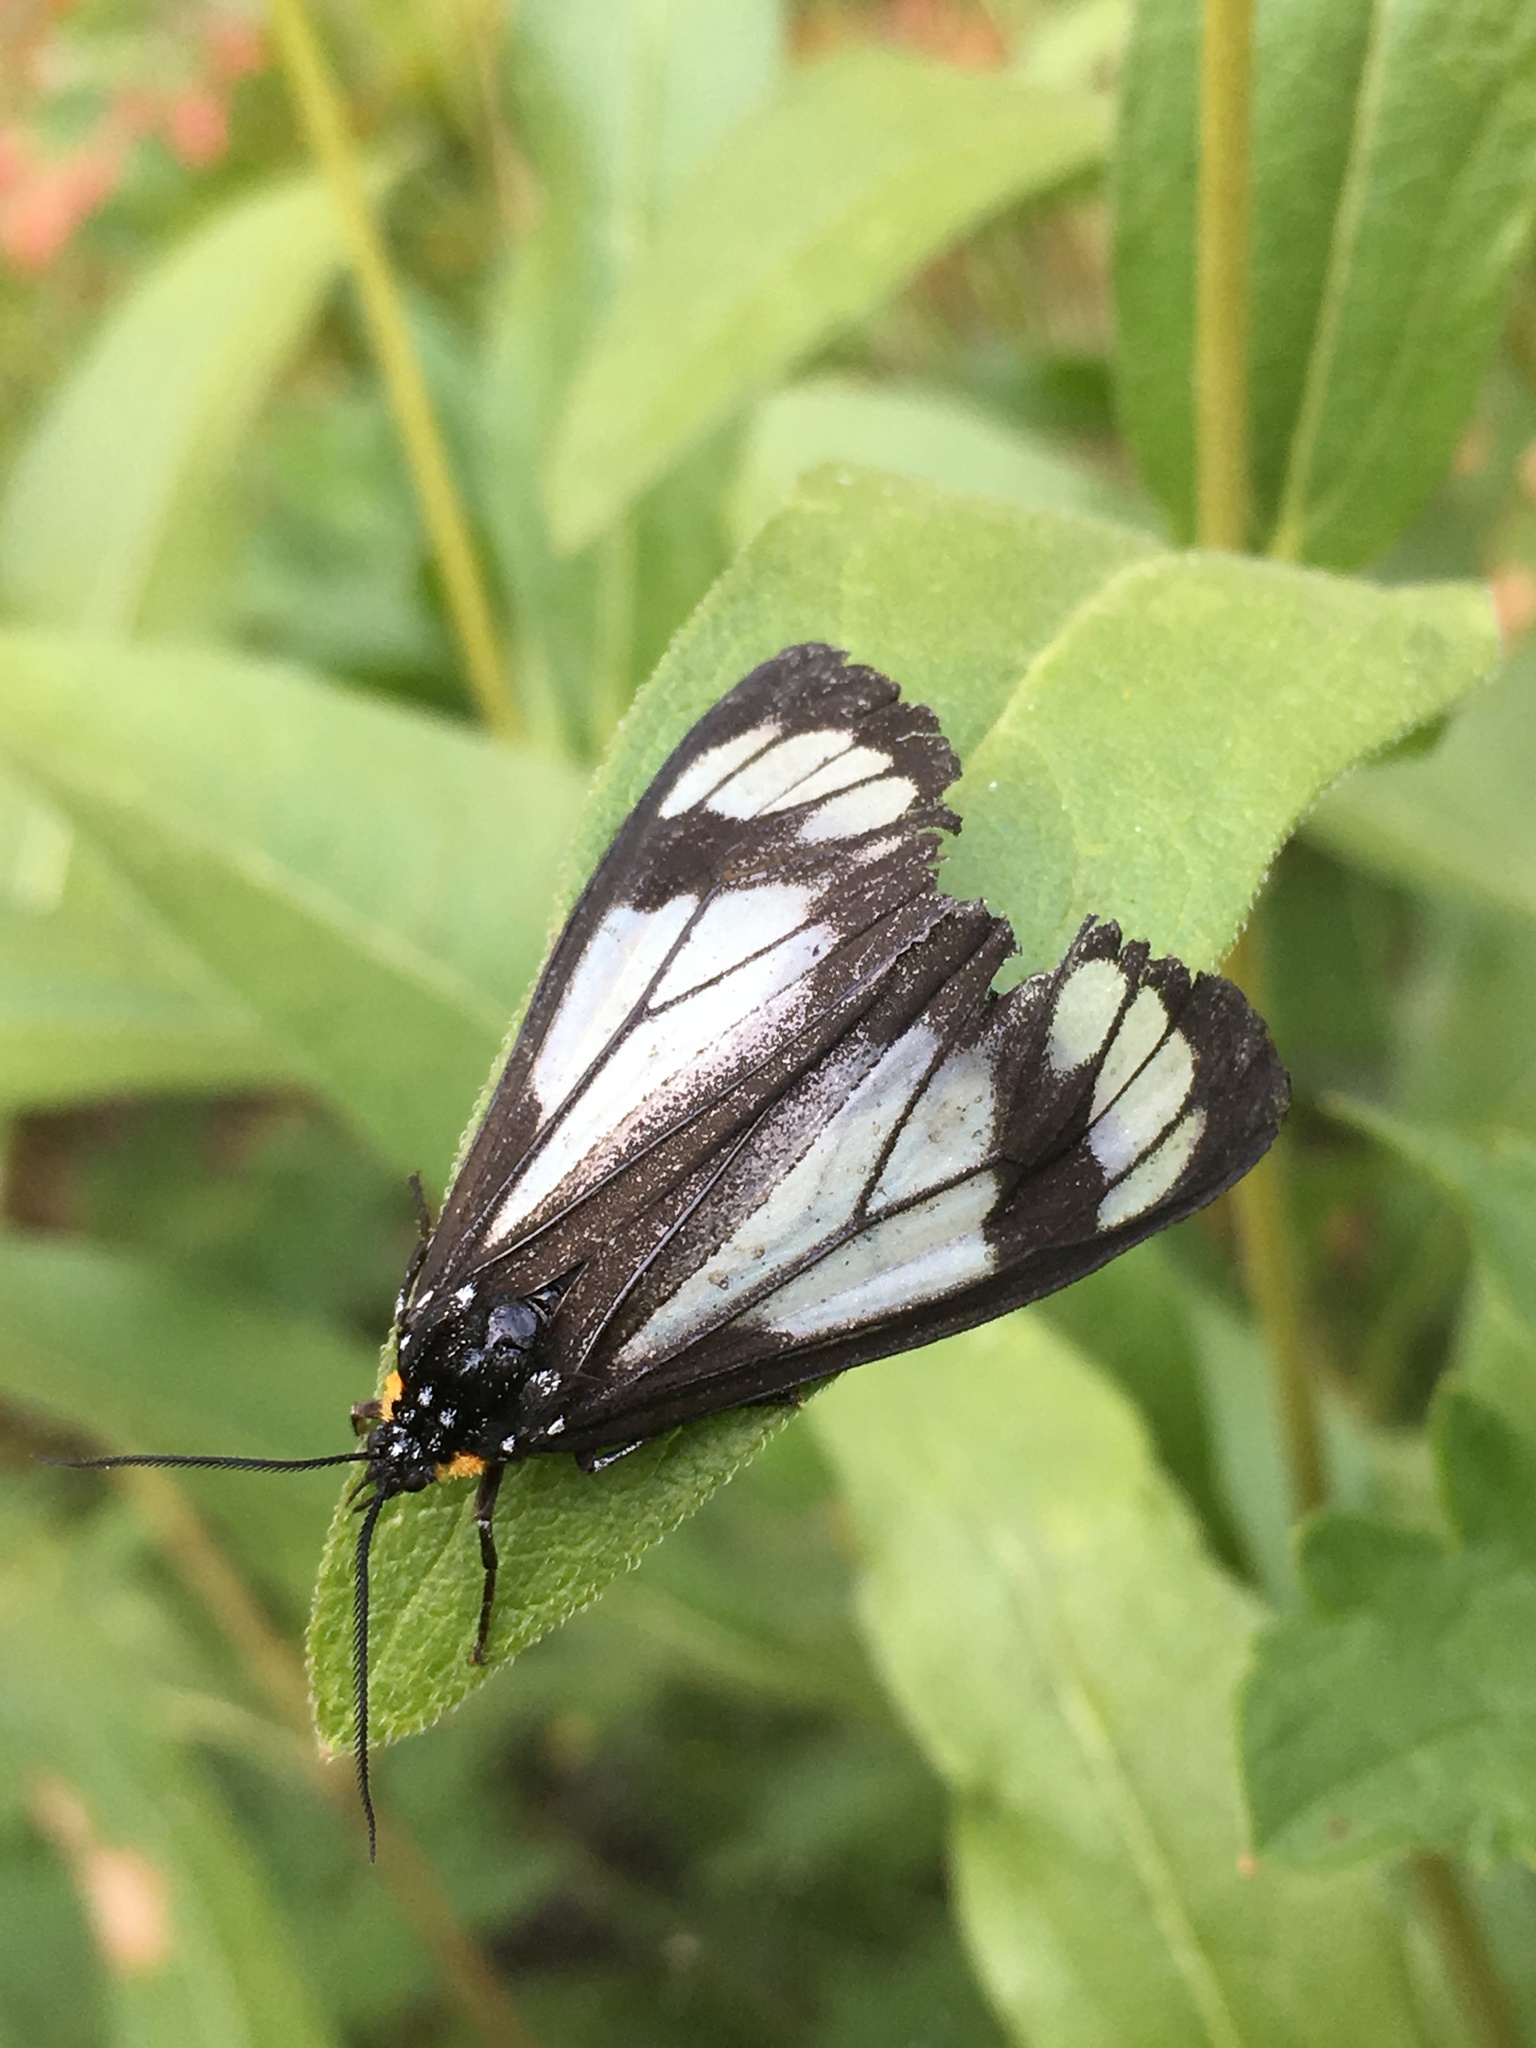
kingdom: Animalia
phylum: Arthropoda
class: Insecta
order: Lepidoptera
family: Erebidae
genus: Gnophaela
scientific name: Gnophaela vermiculata
